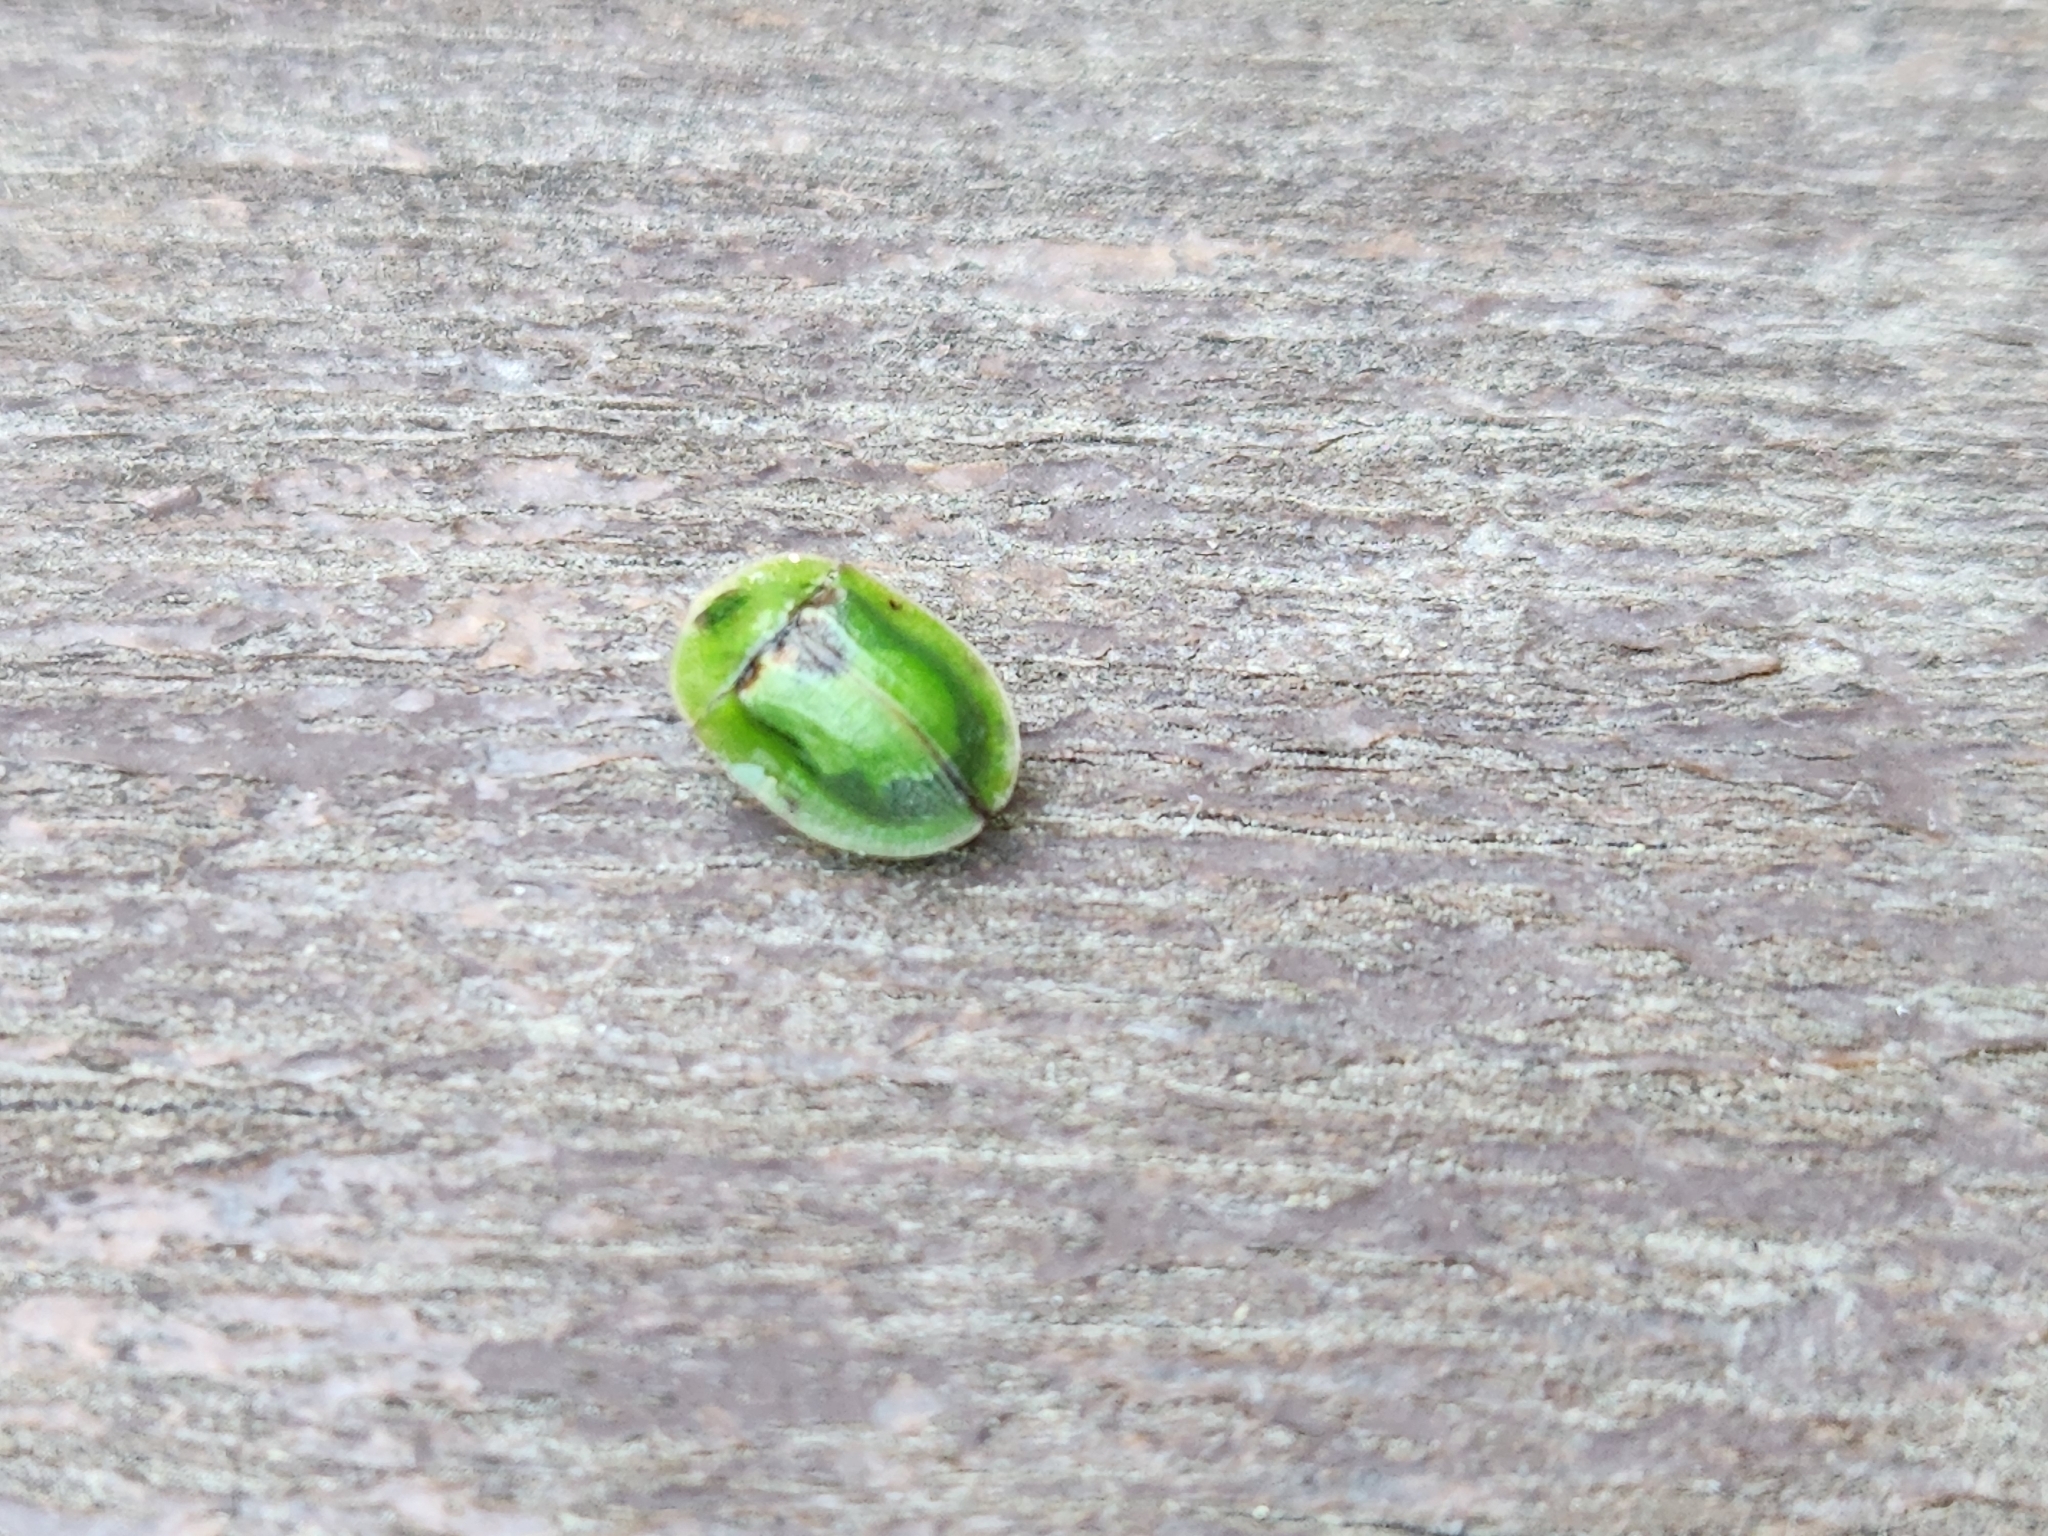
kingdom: Animalia
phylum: Arthropoda
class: Insecta
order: Coleoptera
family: Chrysomelidae
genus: Cassida
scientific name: Cassida rubiginosa
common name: Thistle tortoise beetle
